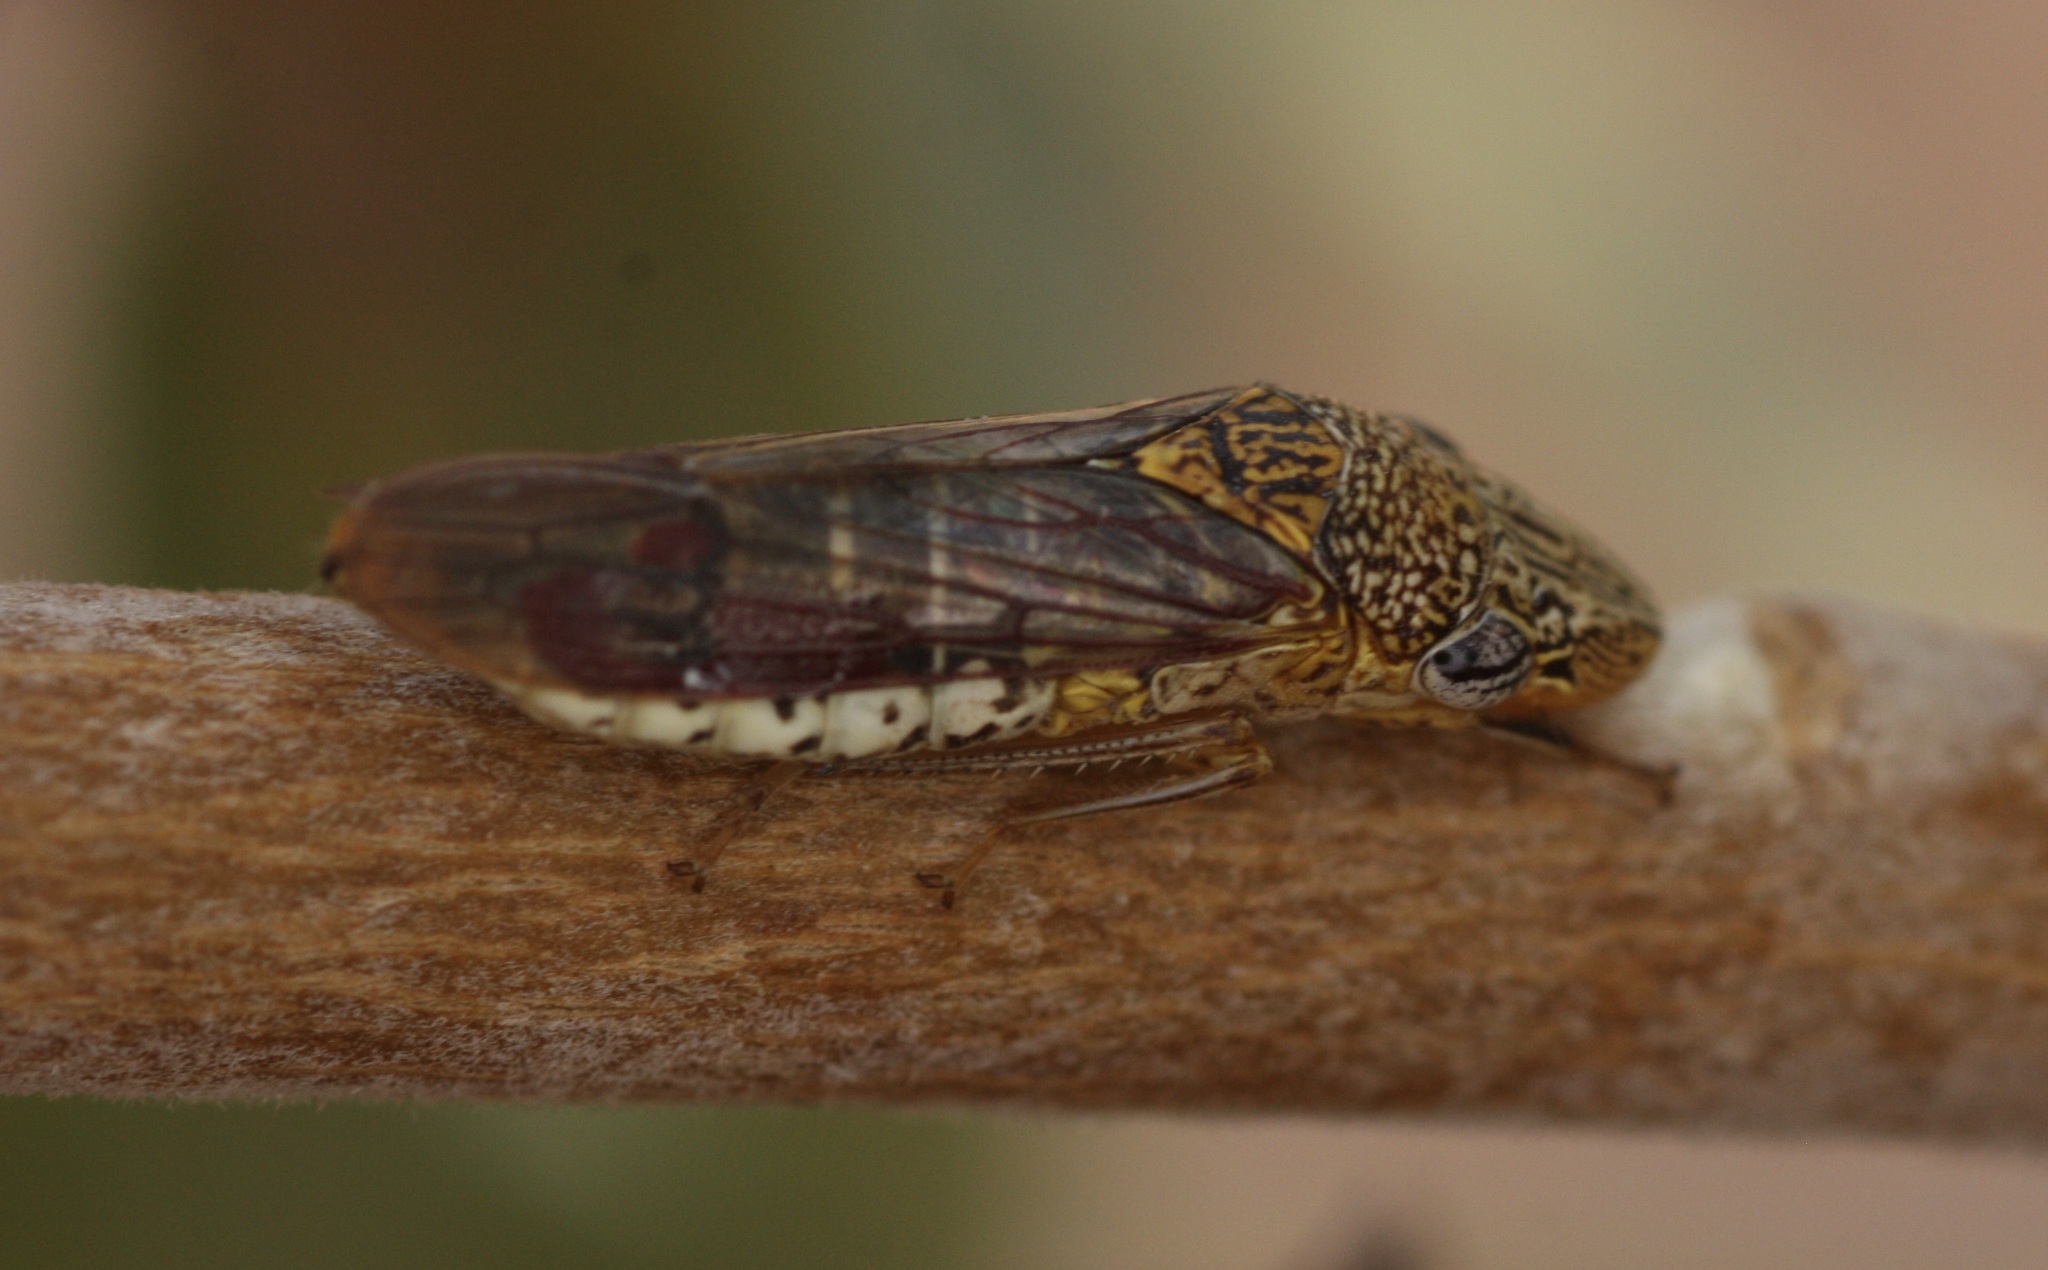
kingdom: Animalia
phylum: Arthropoda
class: Insecta
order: Hemiptera
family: Cicadellidae
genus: Homalodisca
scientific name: Homalodisca liturata
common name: Lacertate sharpshooter
